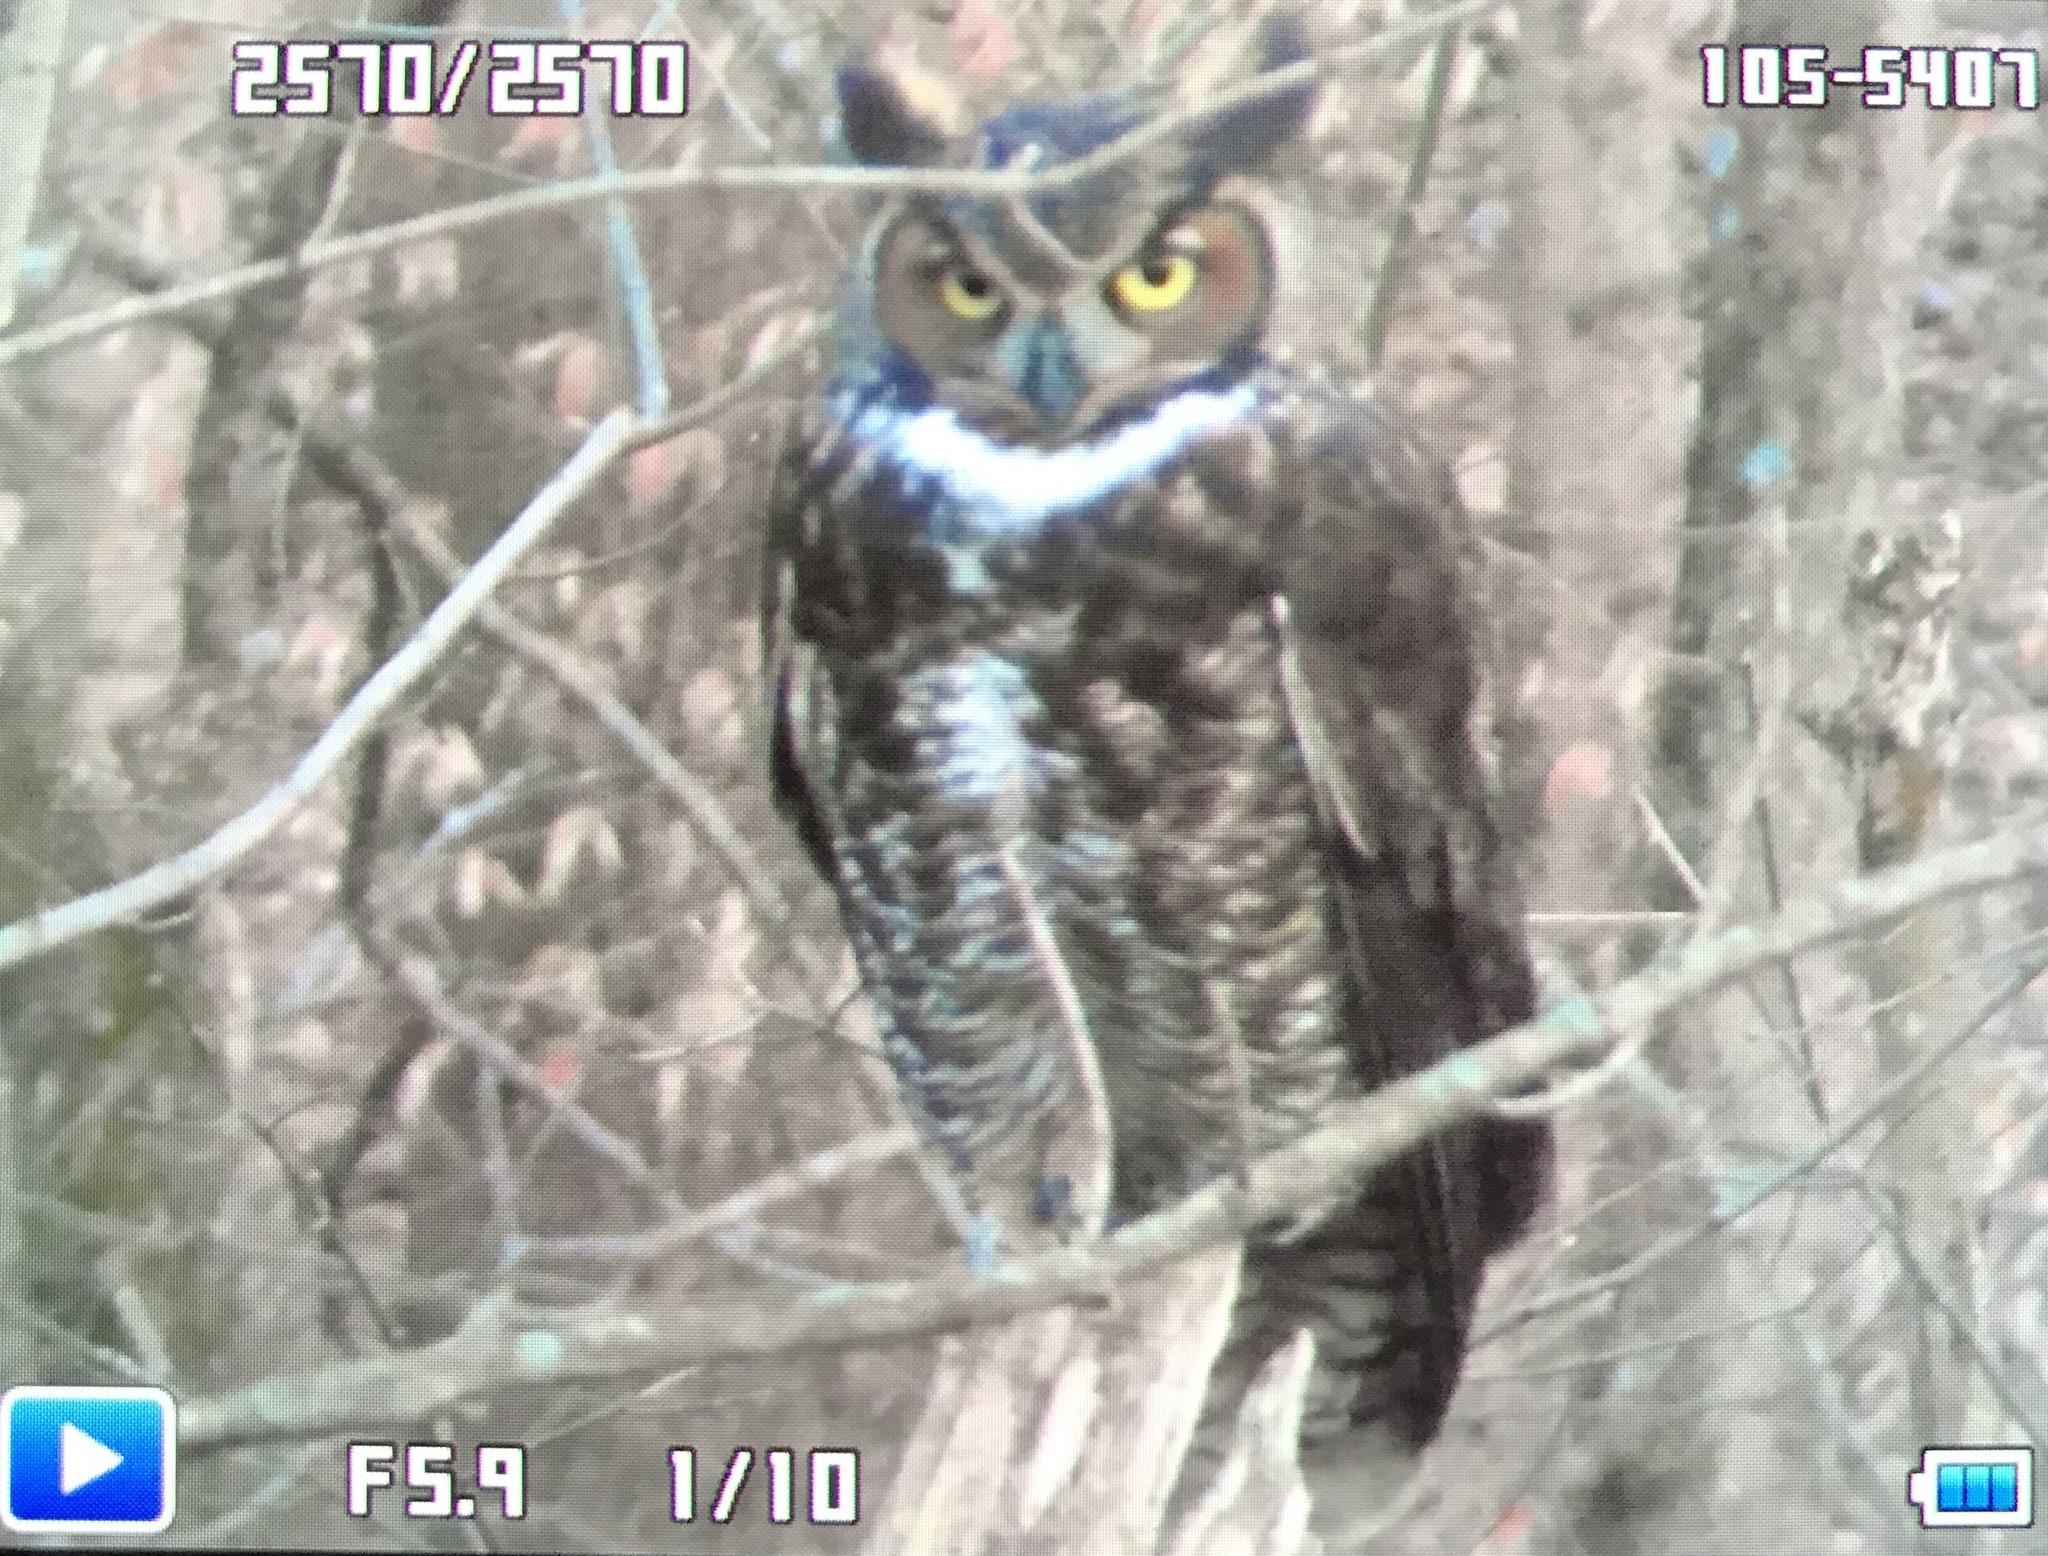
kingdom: Animalia
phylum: Chordata
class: Aves
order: Strigiformes
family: Strigidae
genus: Bubo
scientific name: Bubo virginianus
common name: Great horned owl
